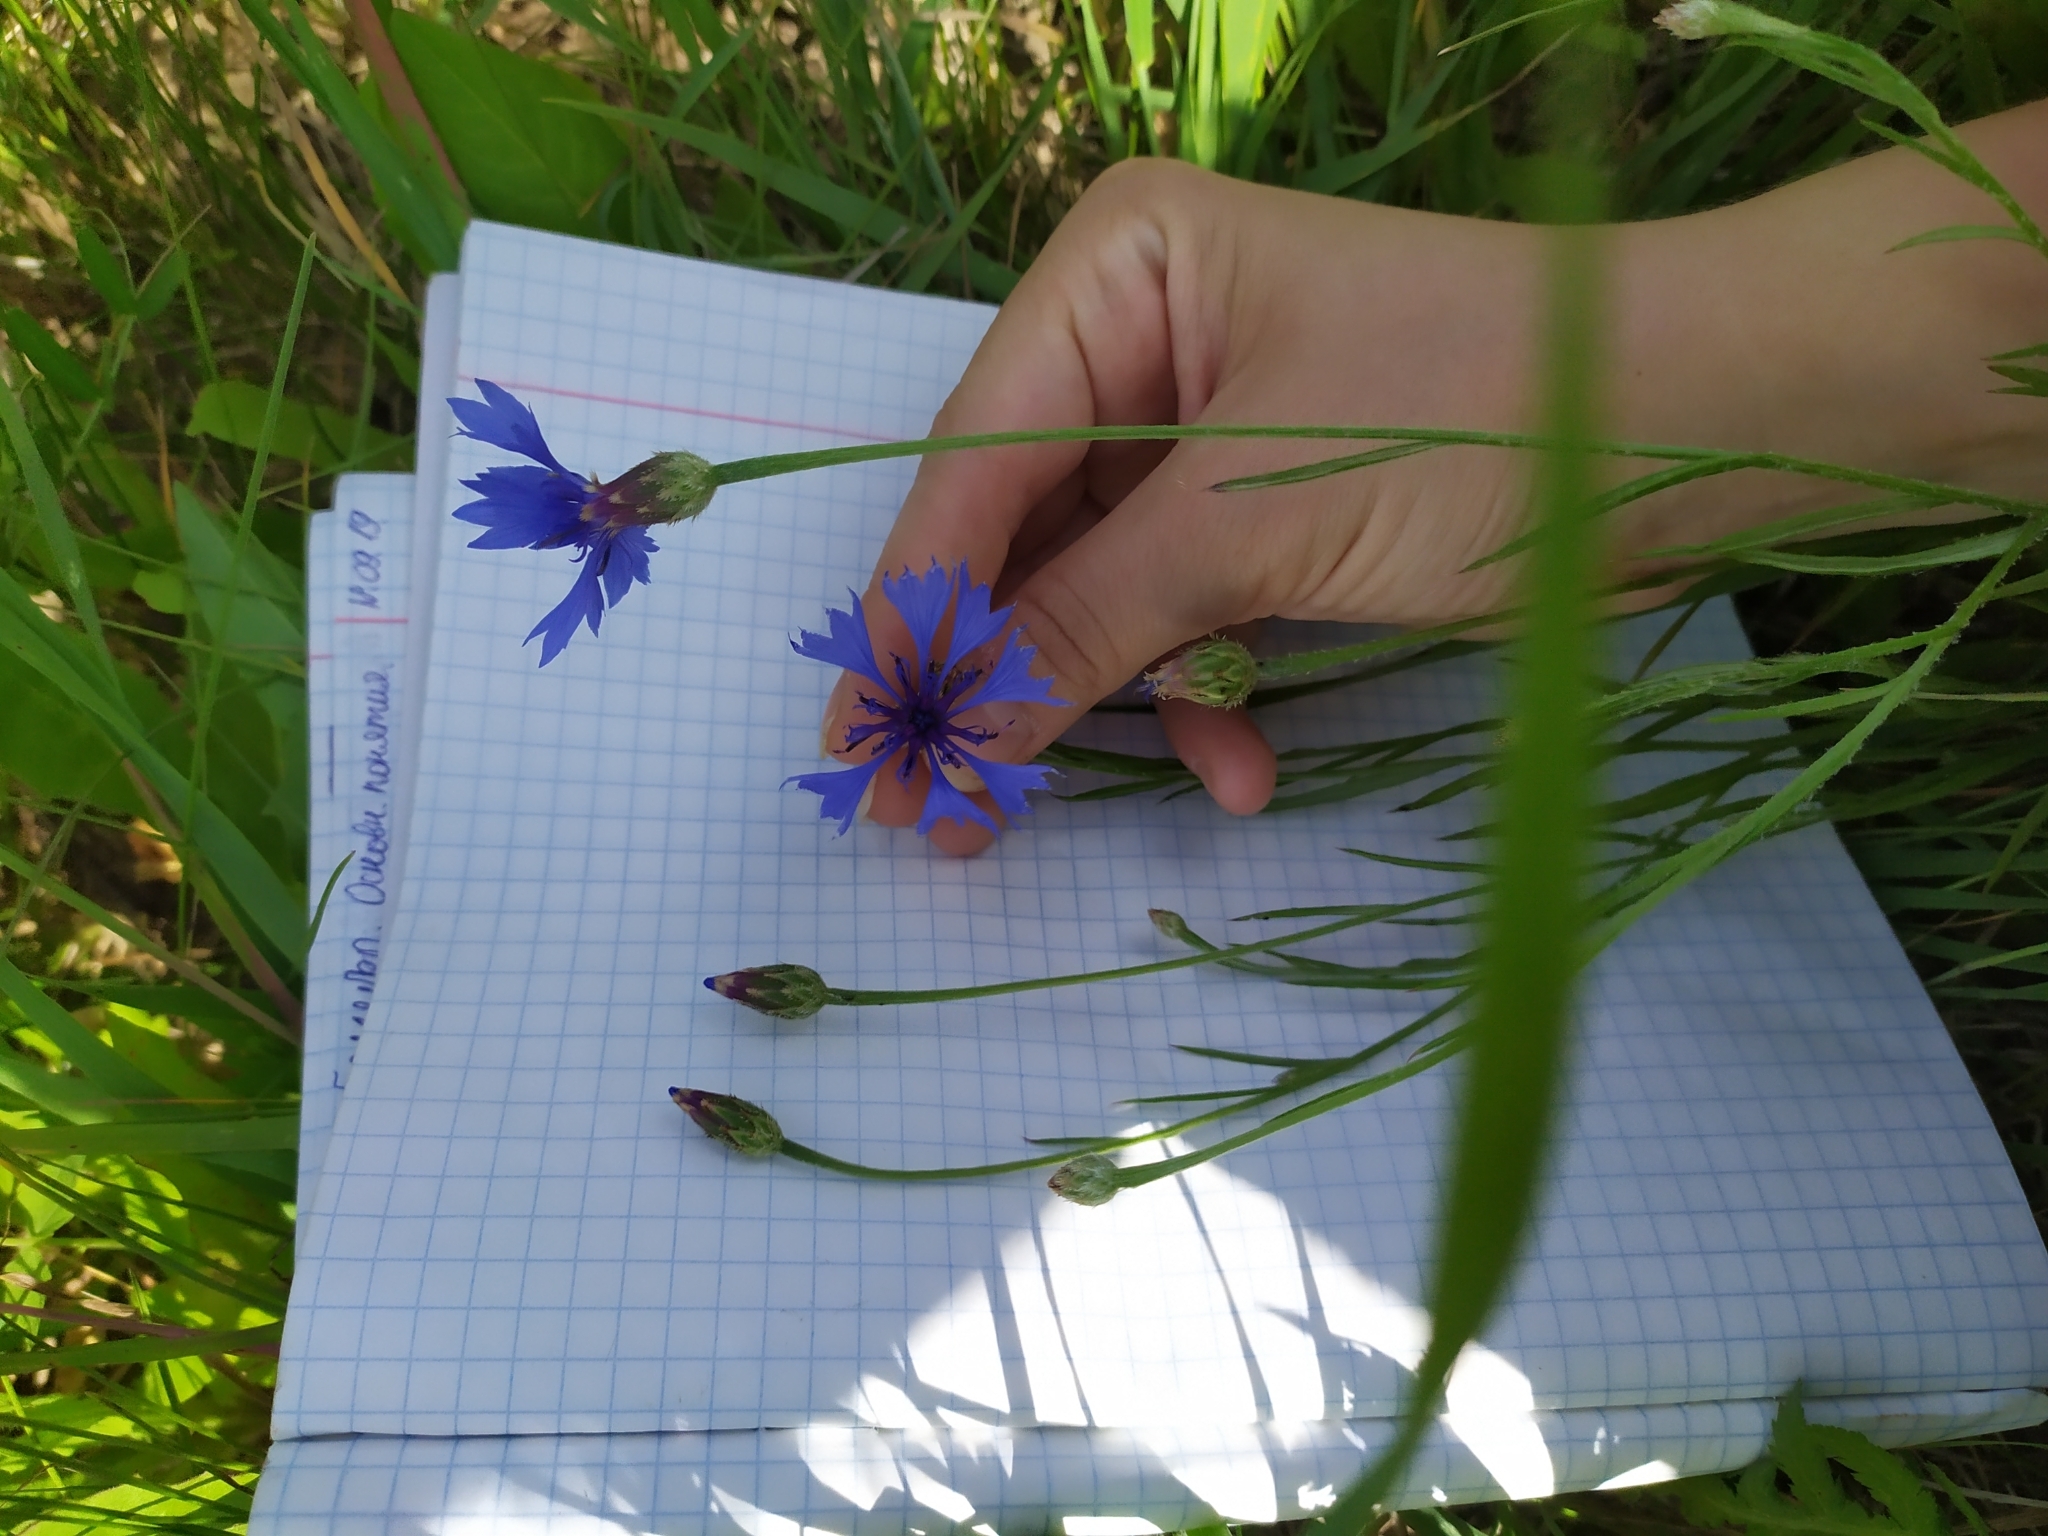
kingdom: Plantae
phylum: Tracheophyta
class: Magnoliopsida
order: Asterales
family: Asteraceae
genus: Centaurea
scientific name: Centaurea cyanus
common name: Cornflower
